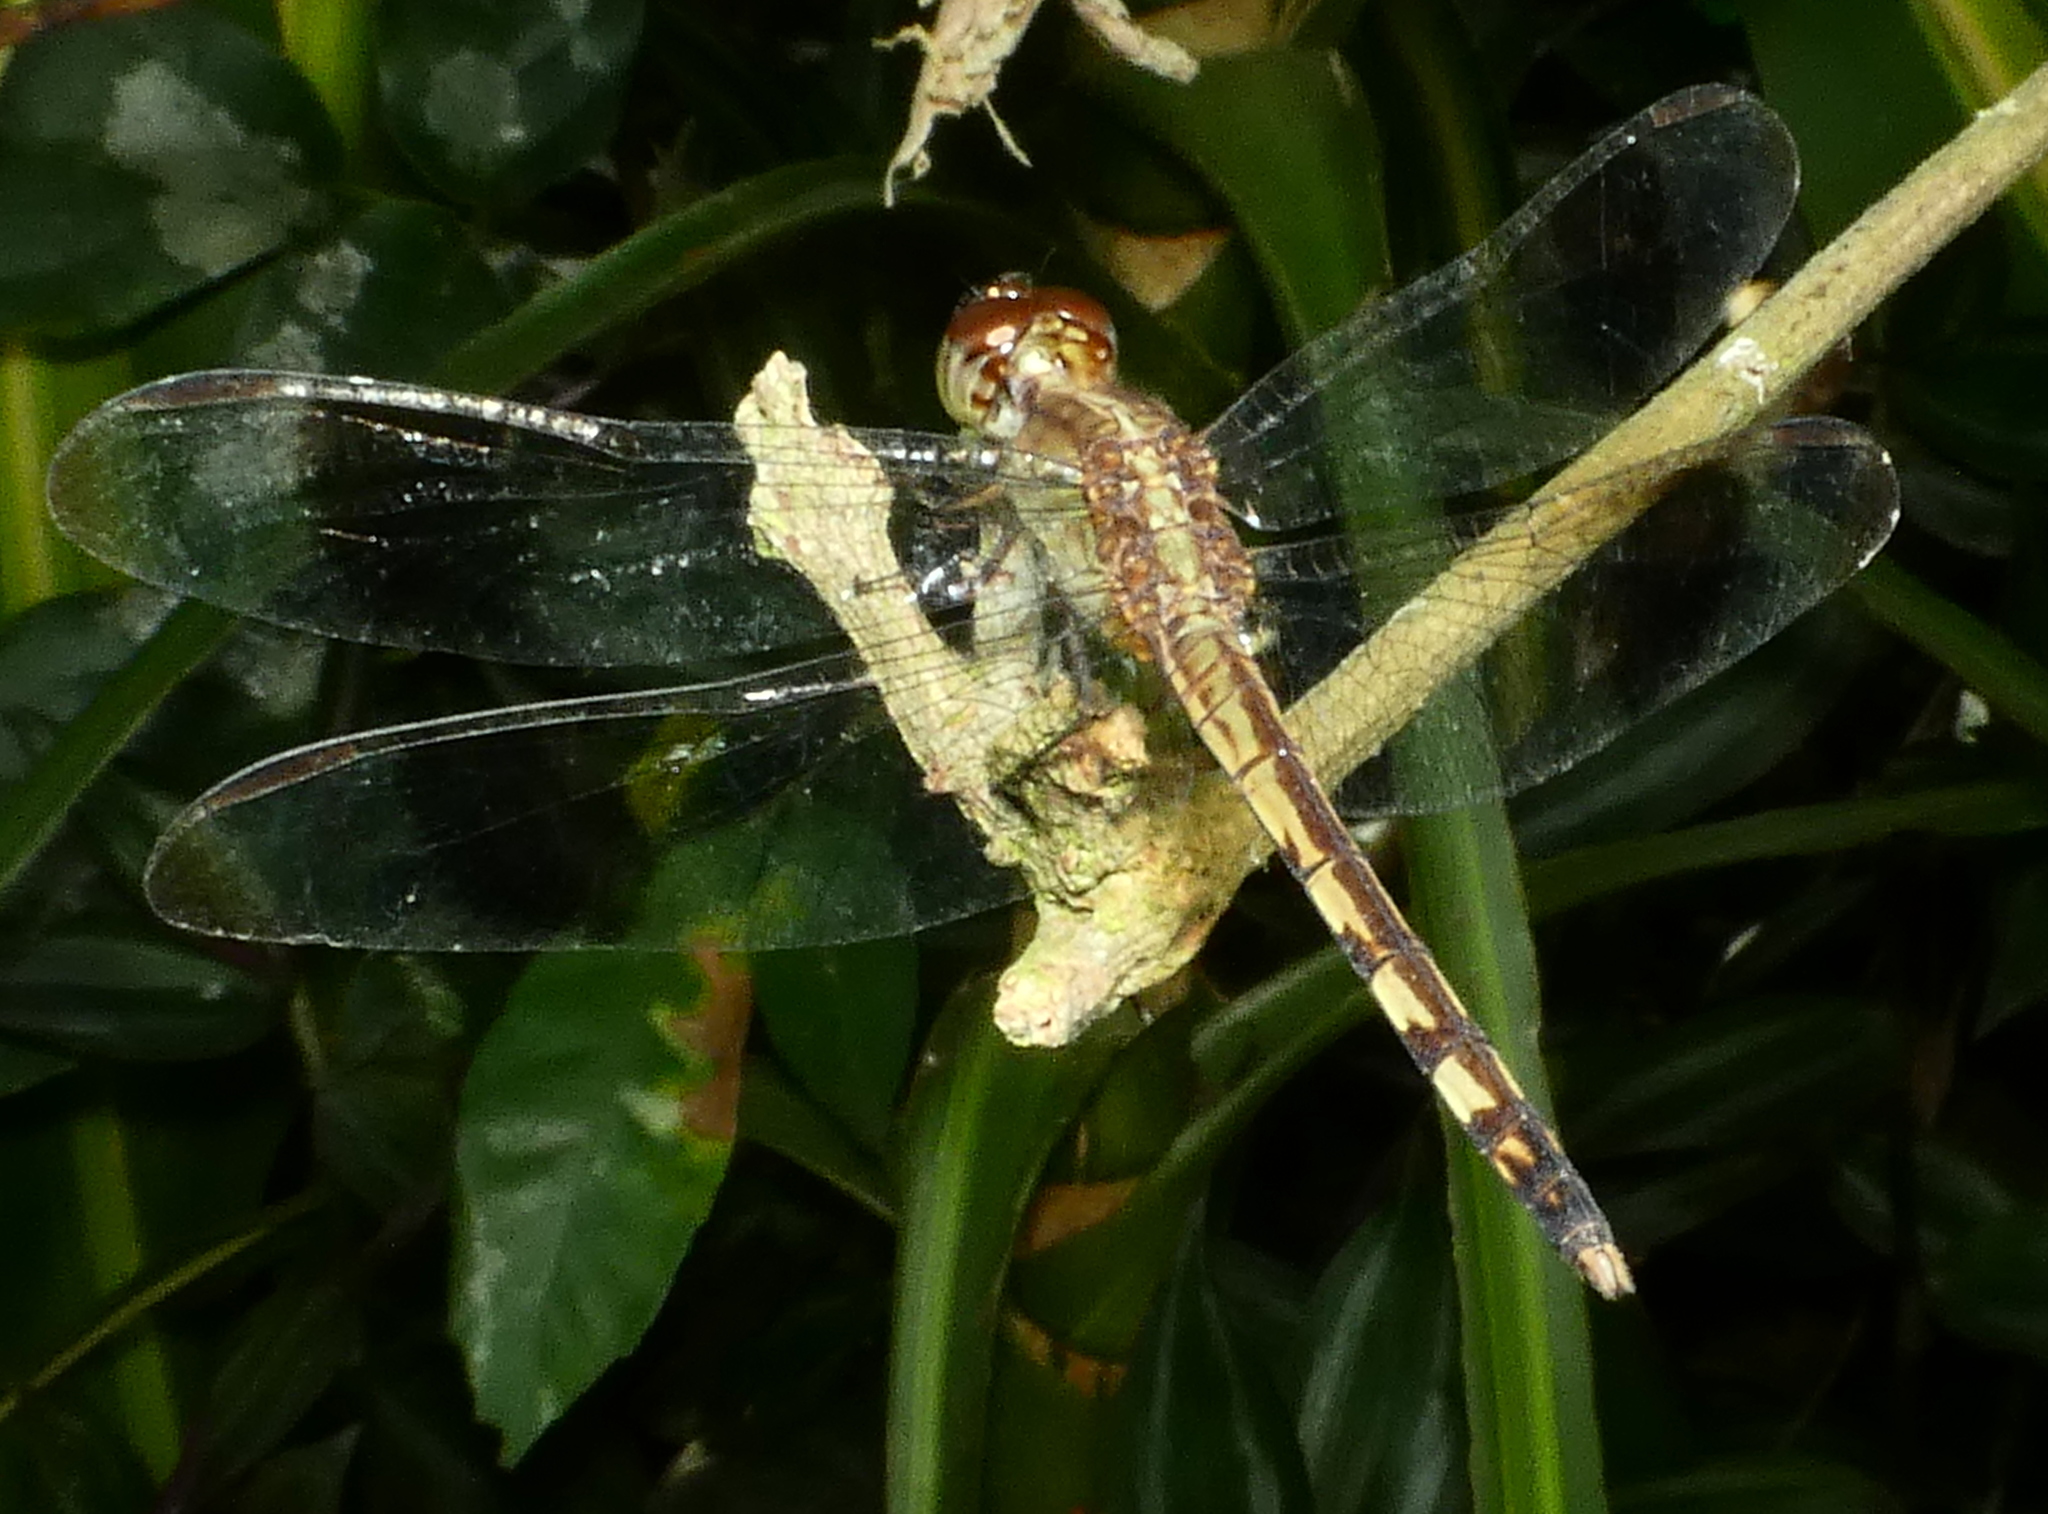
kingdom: Animalia
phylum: Arthropoda
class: Insecta
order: Odonata
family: Libellulidae
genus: Erythrodiplax
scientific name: Erythrodiplax umbrata
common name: Band-winged dragonlet
